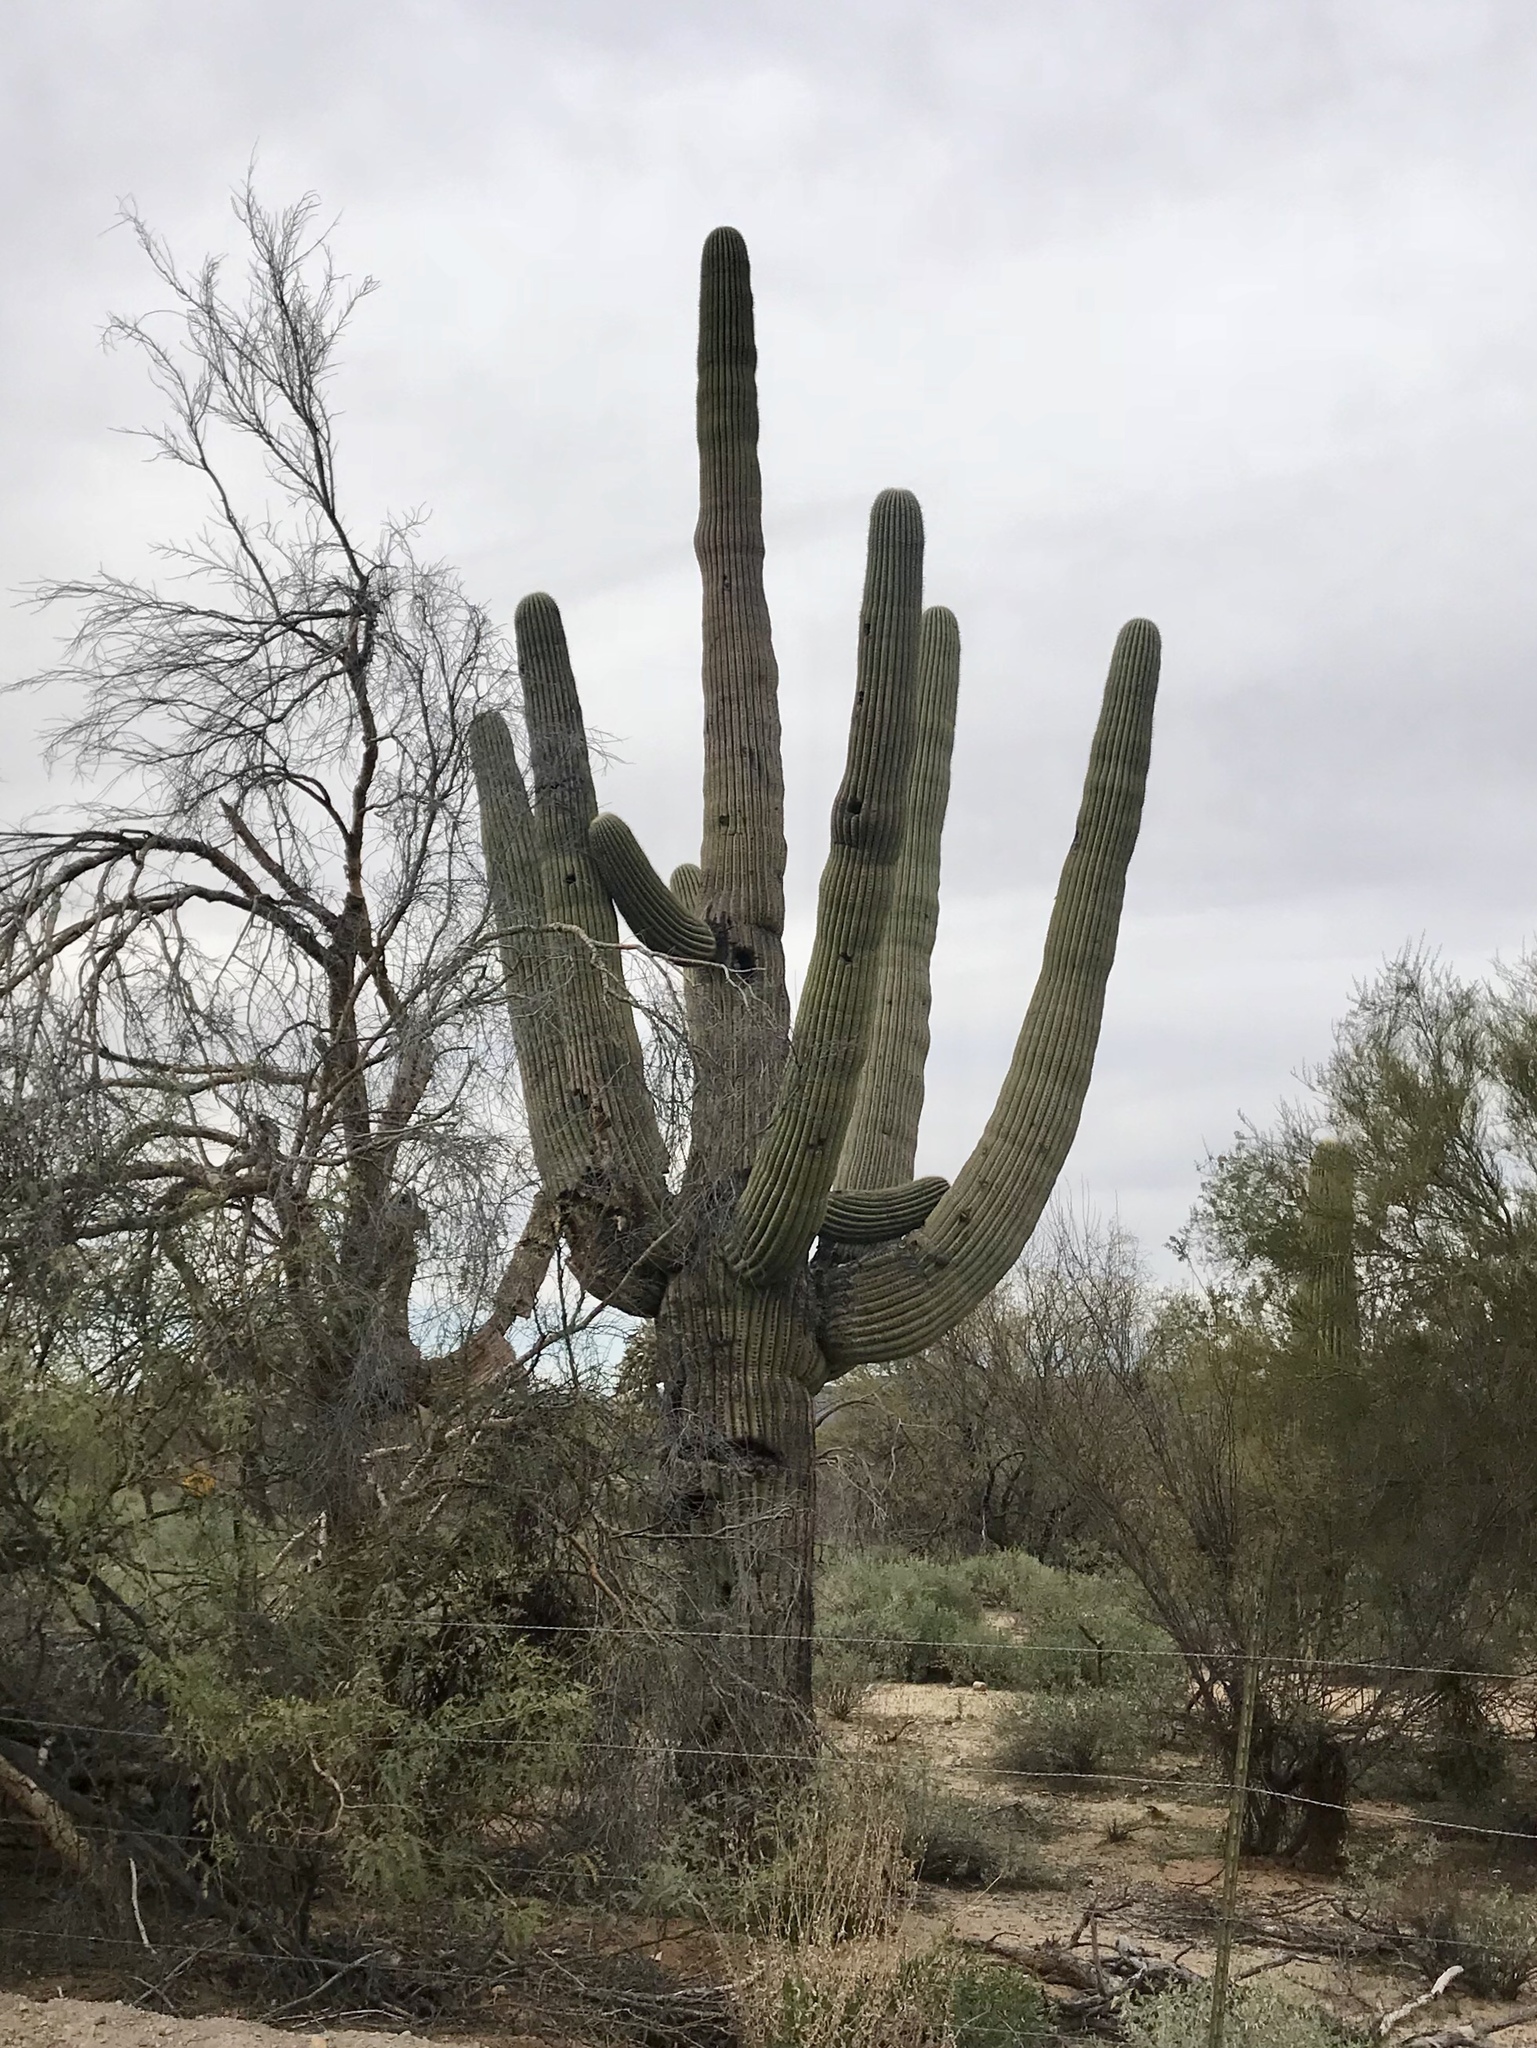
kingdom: Plantae
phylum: Tracheophyta
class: Magnoliopsida
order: Caryophyllales
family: Cactaceae
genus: Carnegiea
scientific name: Carnegiea gigantea
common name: Saguaro
